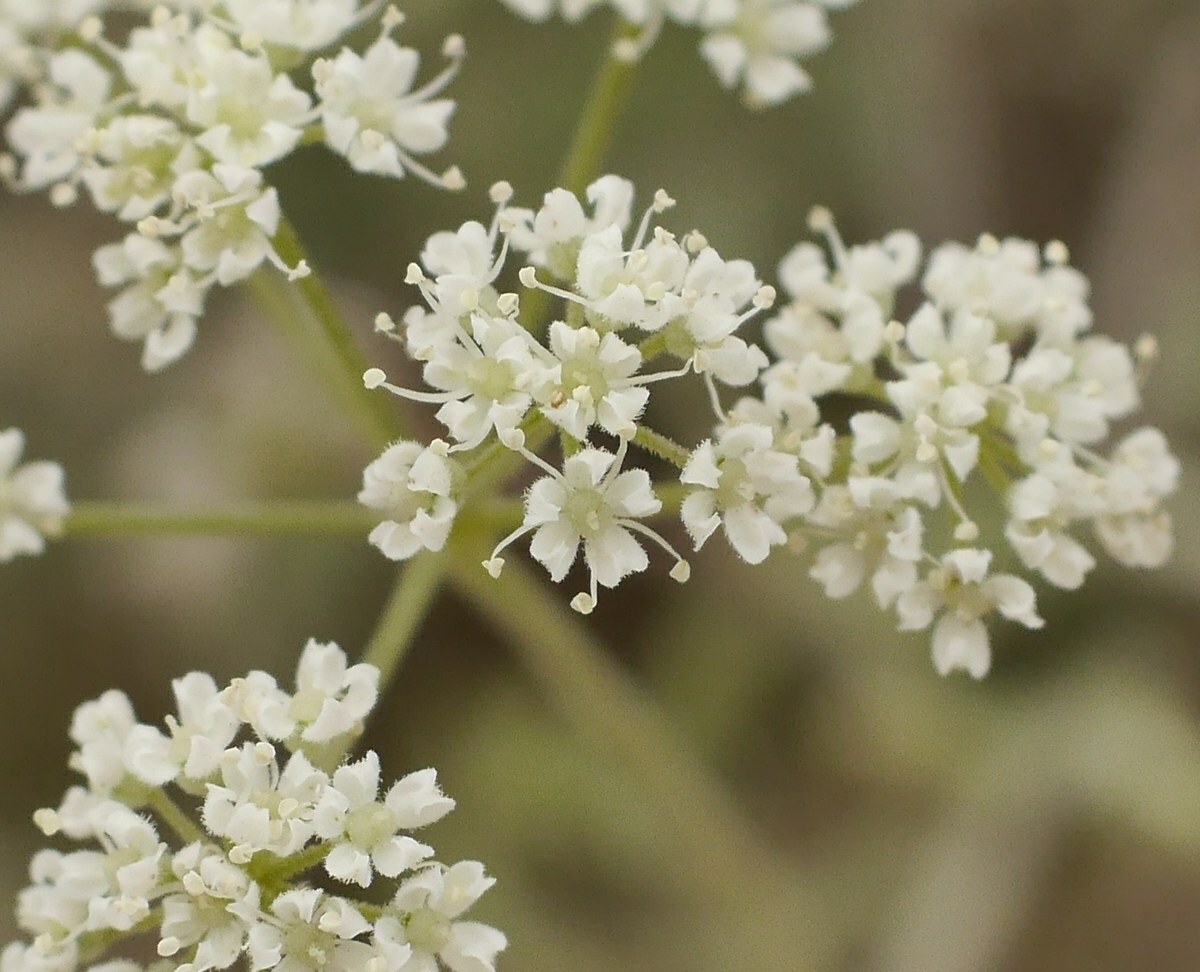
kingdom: Plantae
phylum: Tracheophyta
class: Magnoliopsida
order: Apiales
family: Apiaceae
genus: Pimpinella
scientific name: Pimpinella tragium
